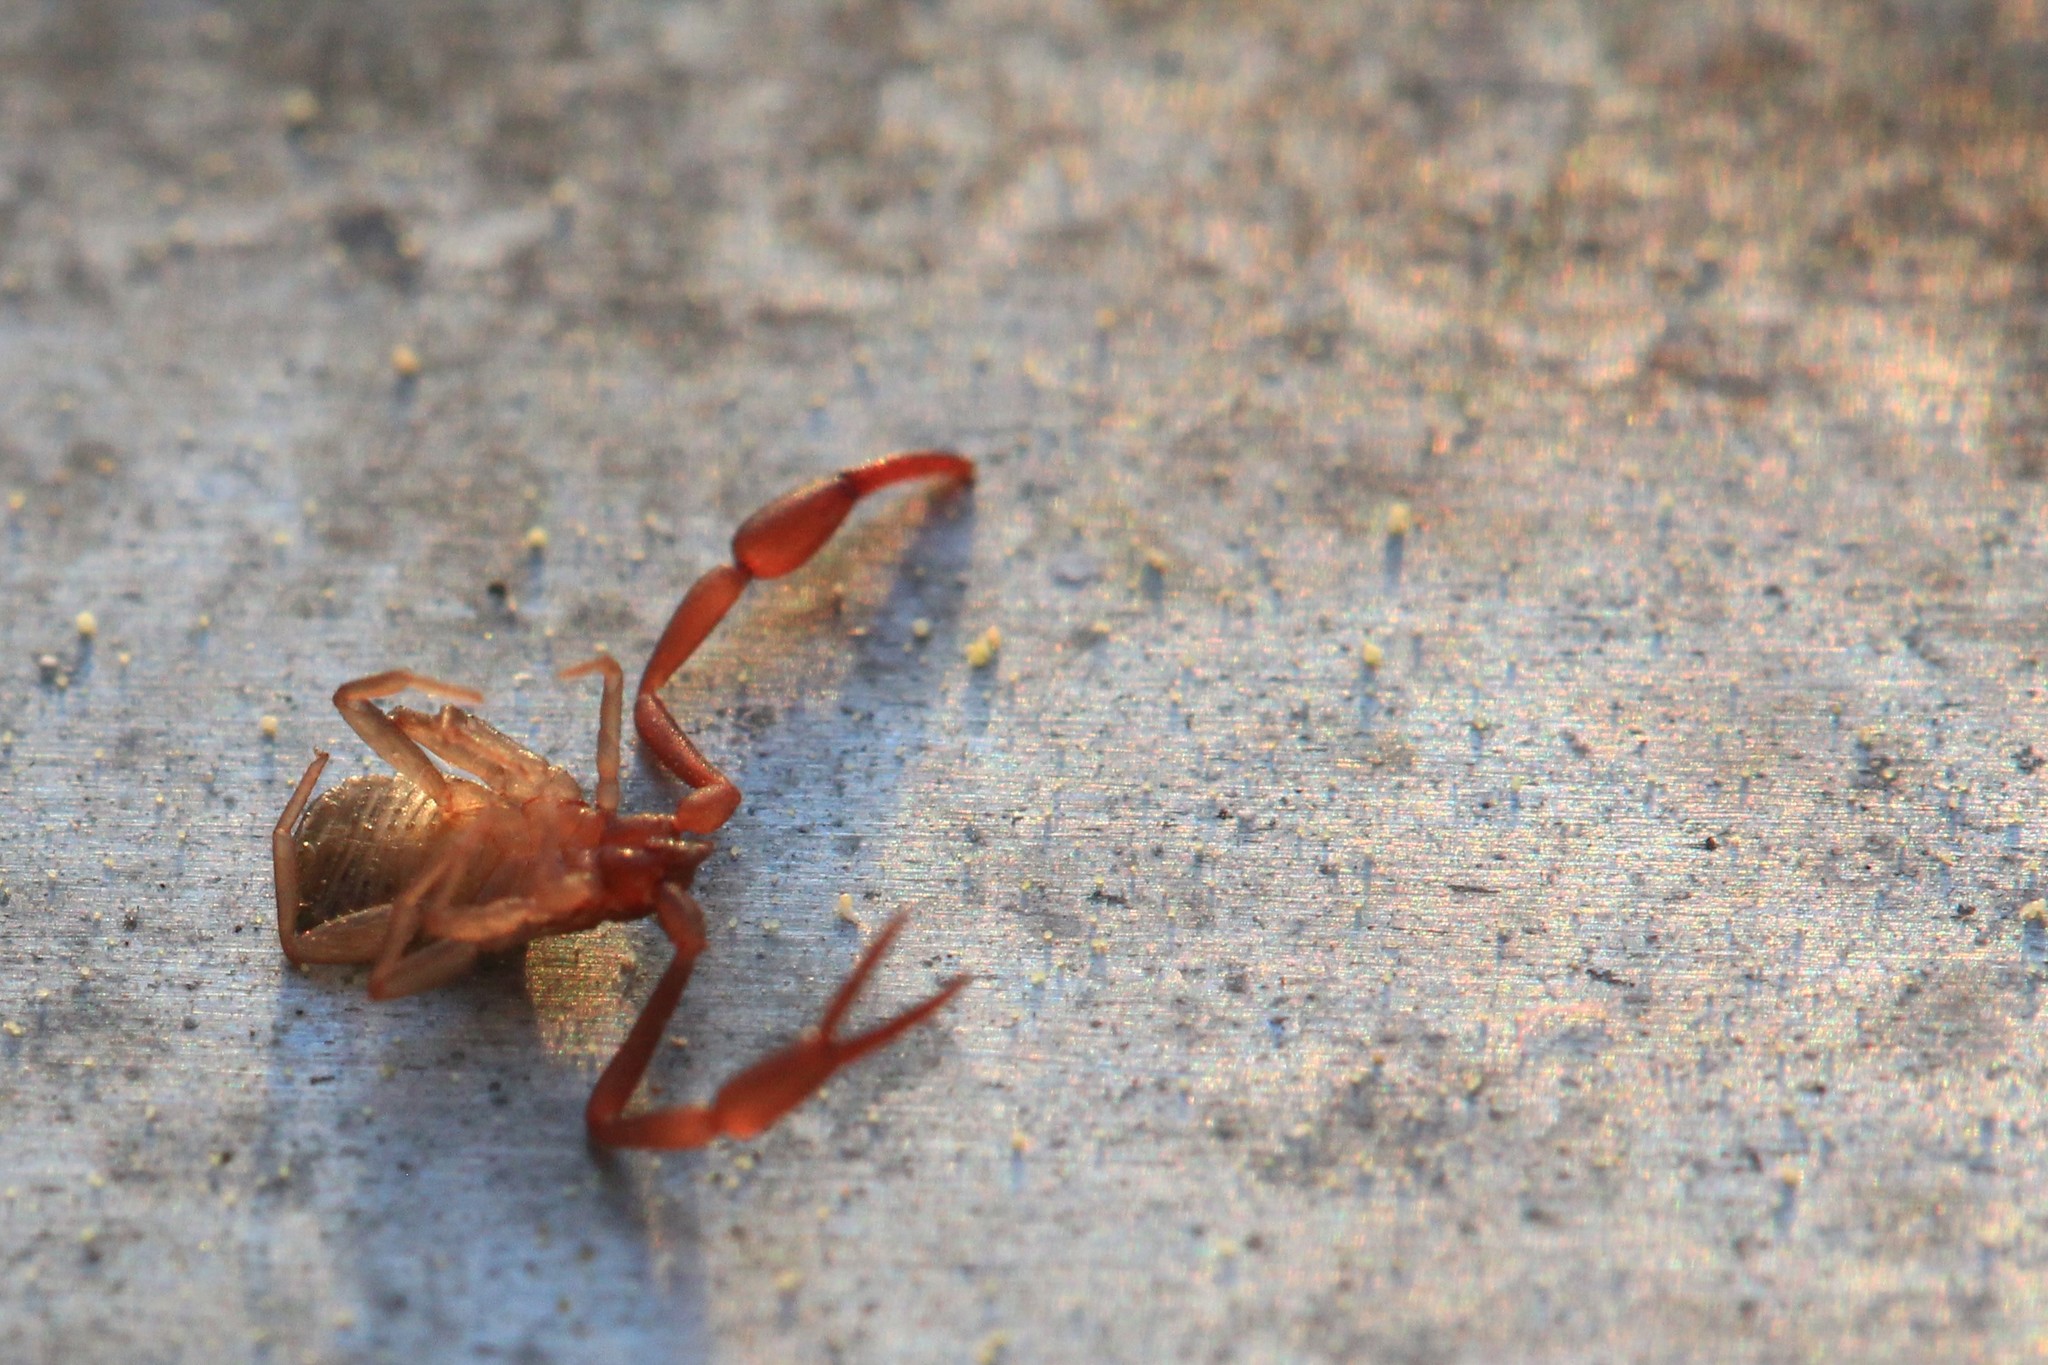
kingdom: Animalia
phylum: Arthropoda
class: Arachnida
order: Pseudoscorpiones
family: Cheliferidae
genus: Chelifer
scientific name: Chelifer cancroides
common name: House false-scorpion
